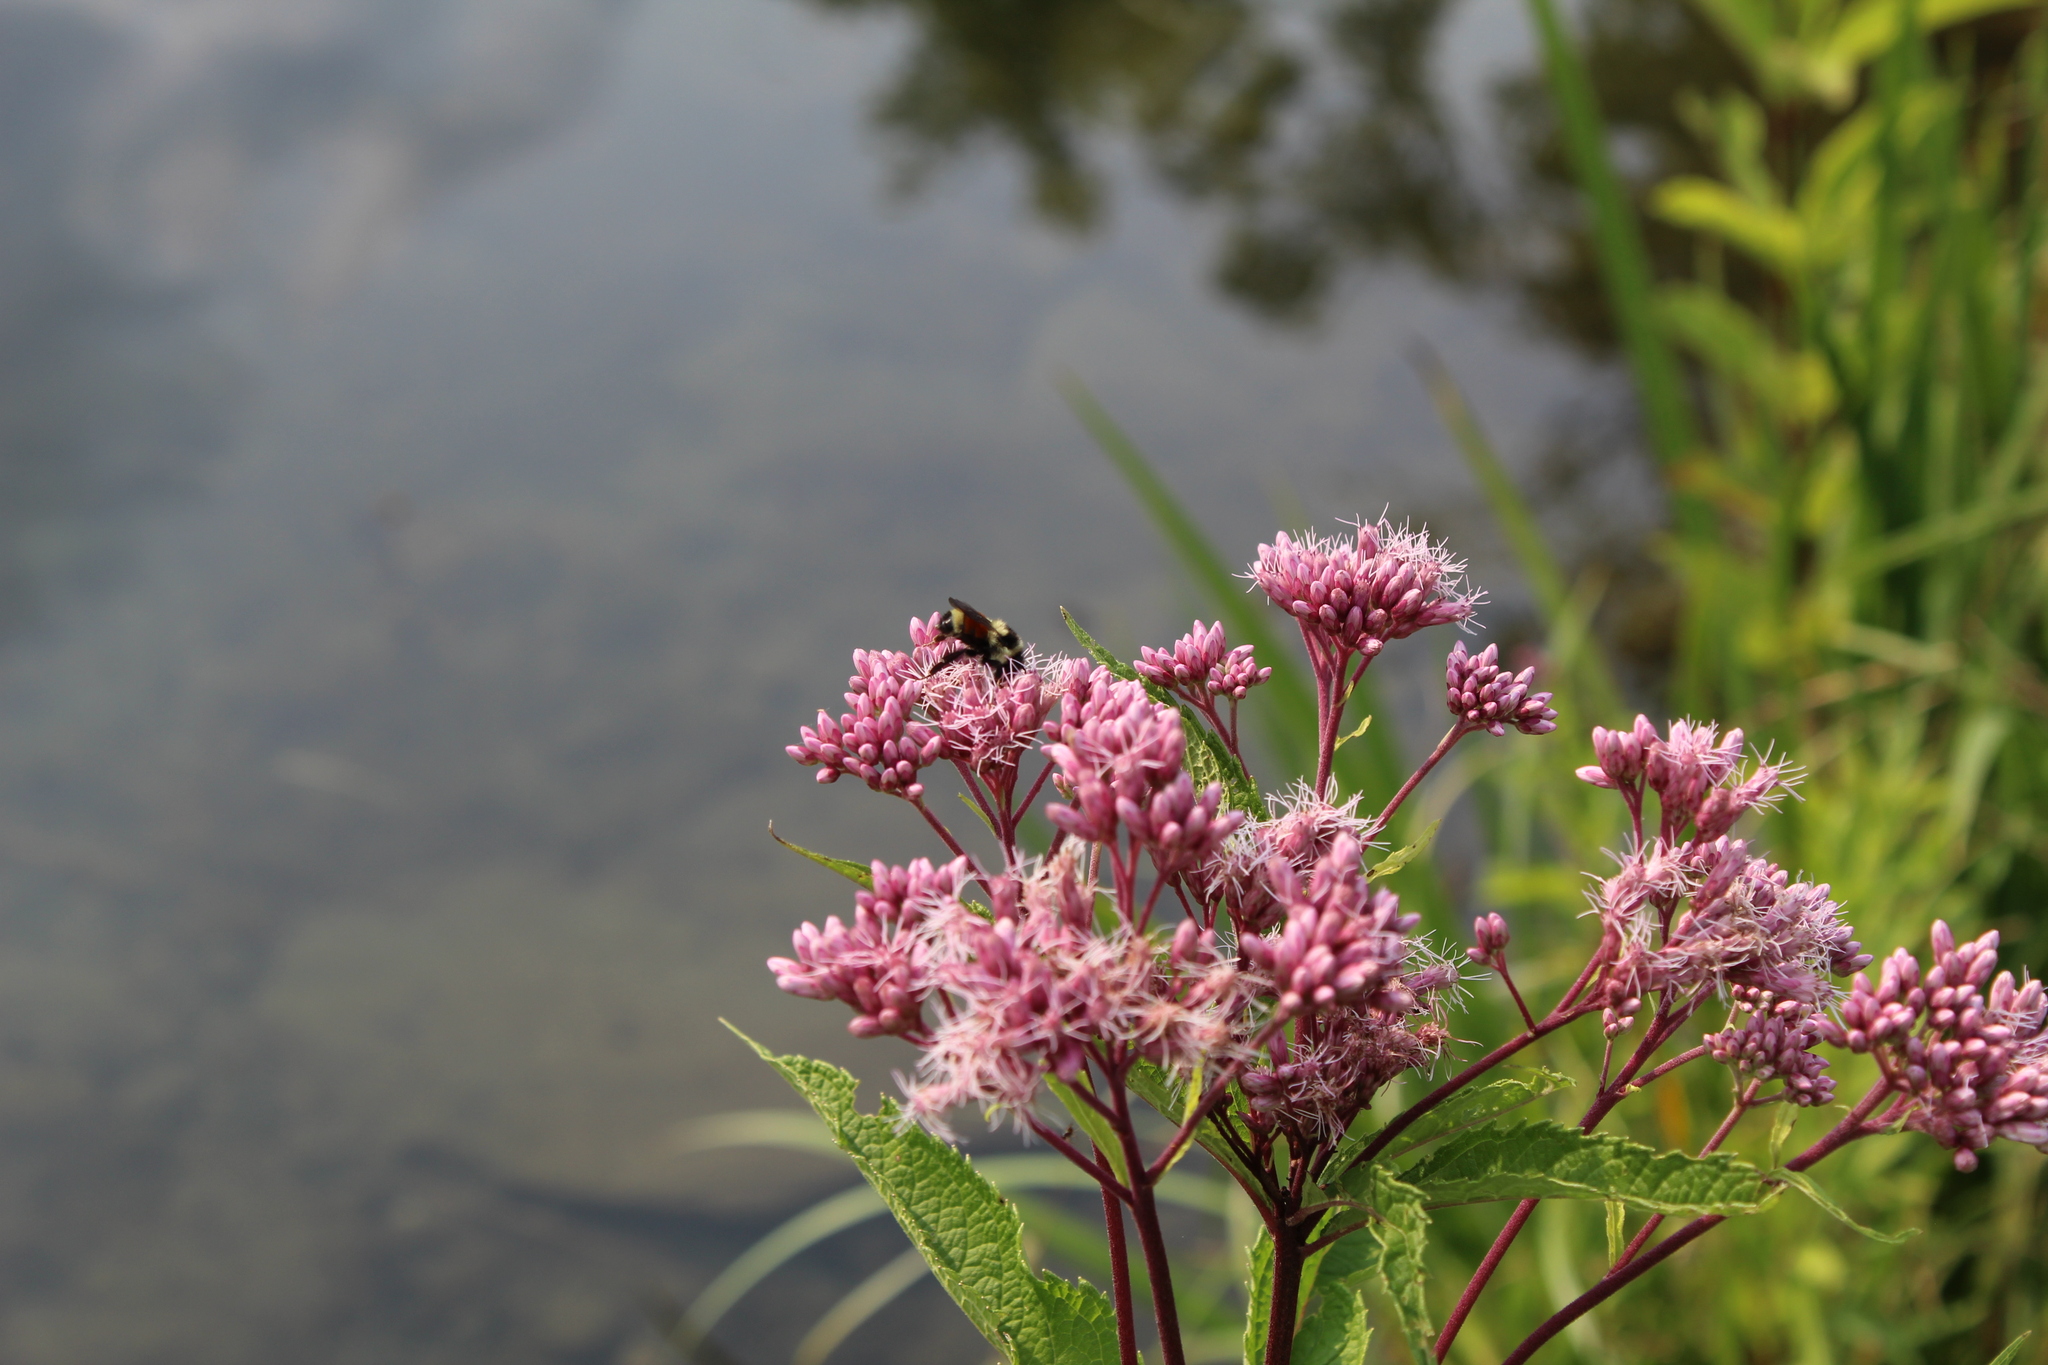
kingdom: Animalia
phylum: Arthropoda
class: Insecta
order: Hymenoptera
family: Apidae
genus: Bombus
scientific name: Bombus ternarius
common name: Tri-colored bumble bee
